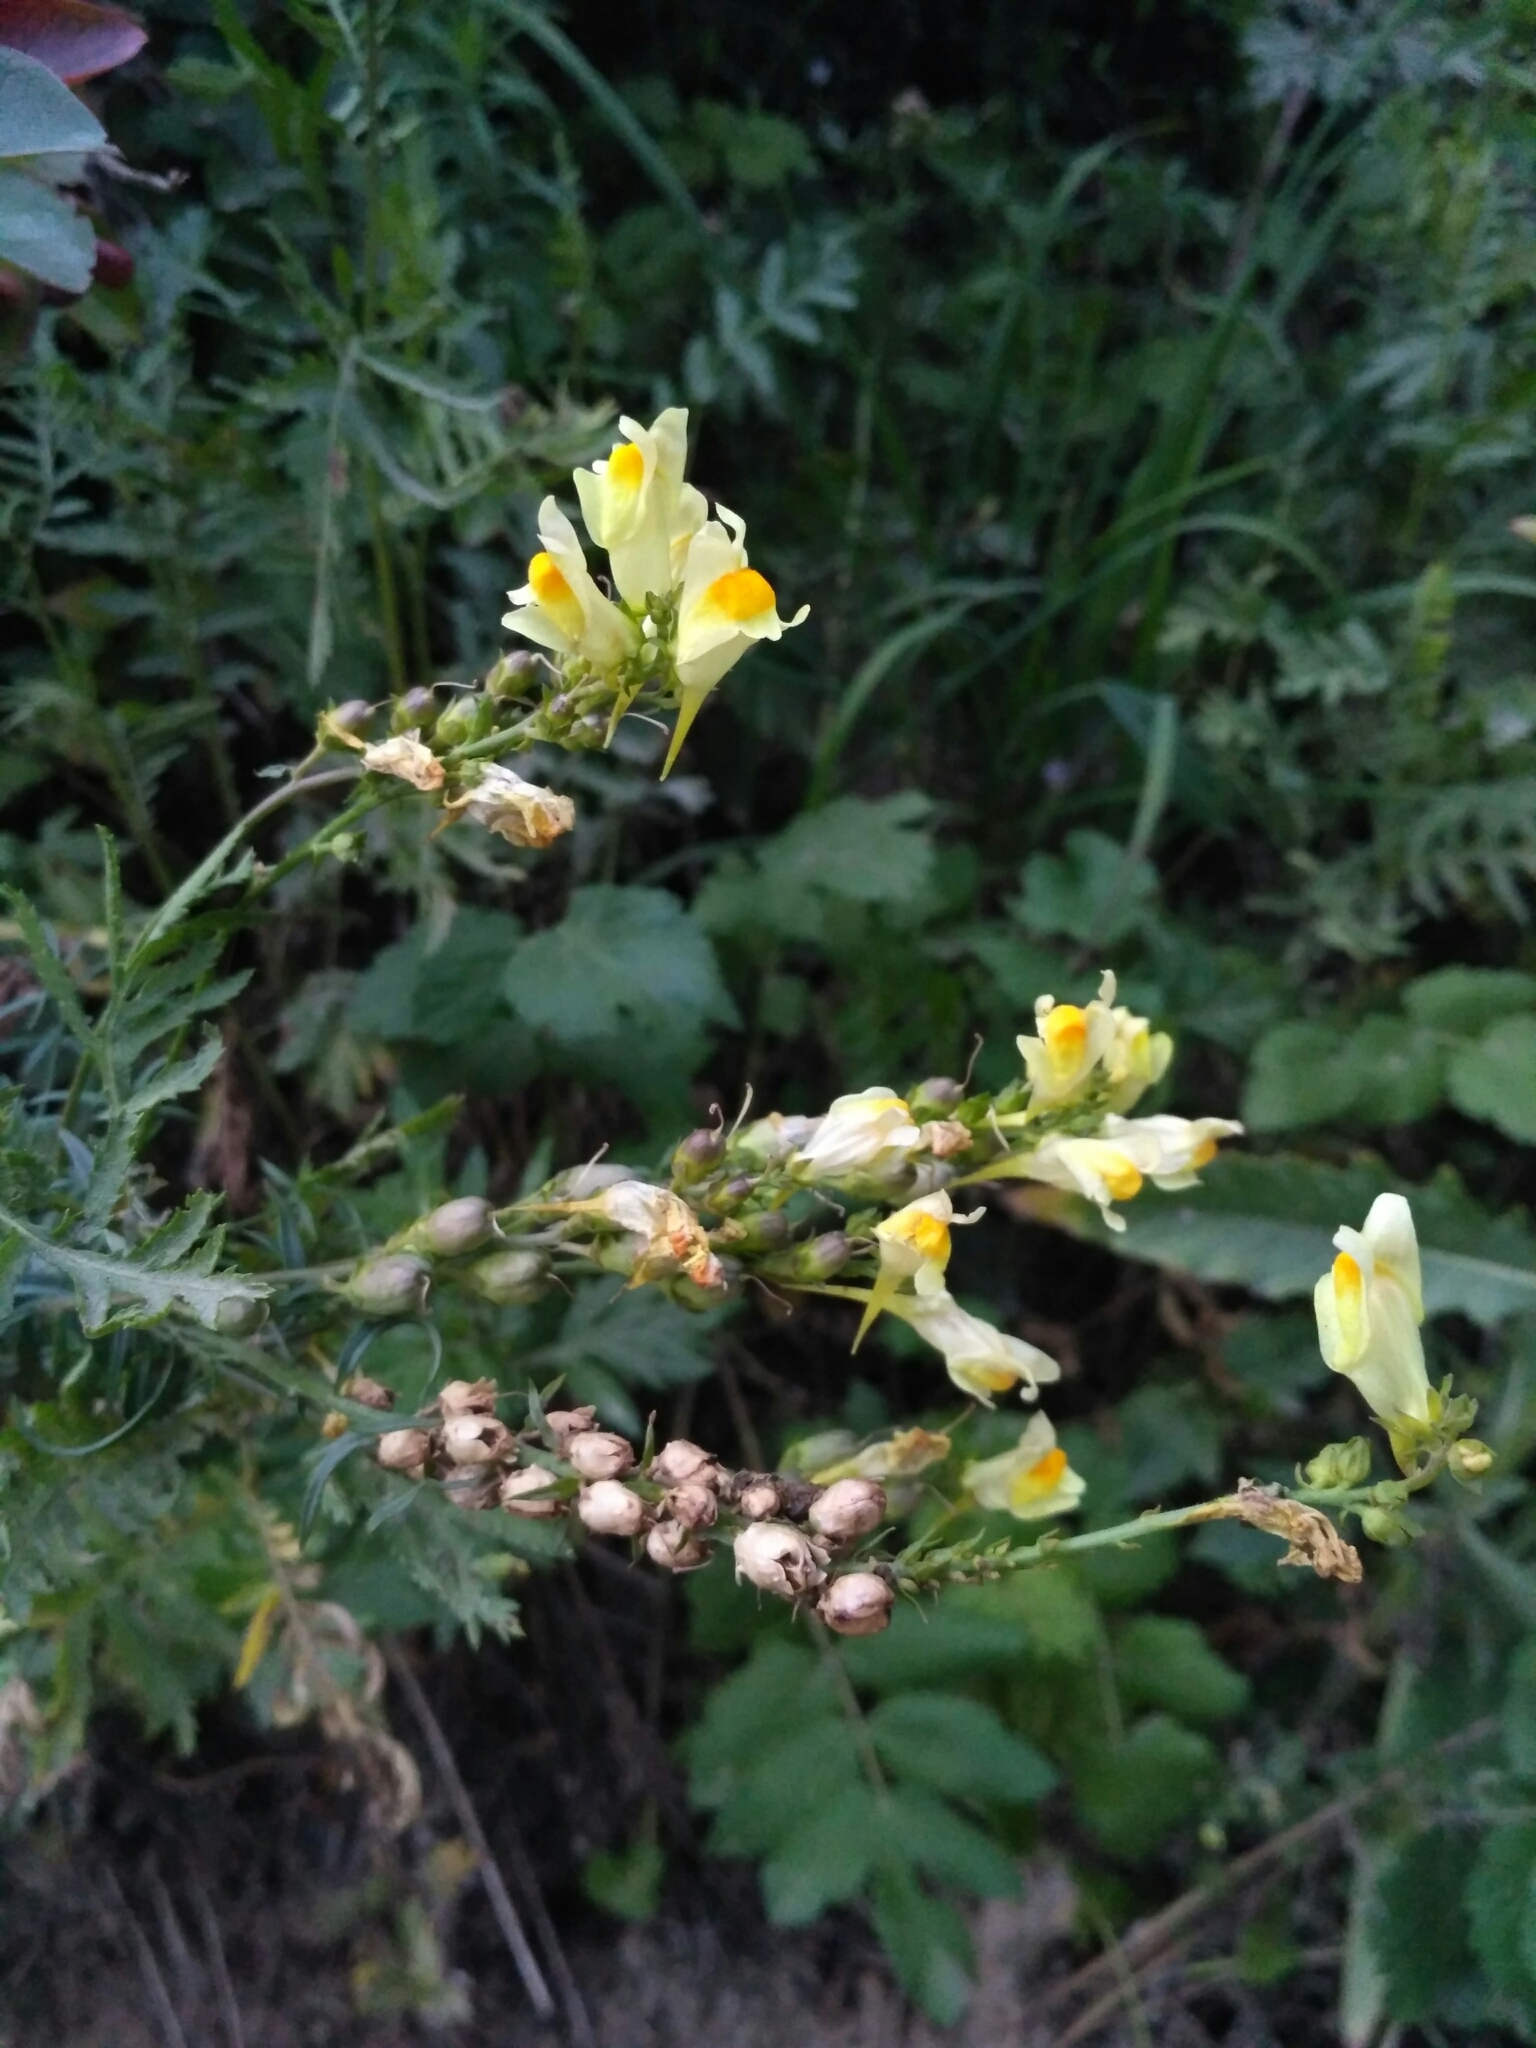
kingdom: Plantae
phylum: Tracheophyta
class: Magnoliopsida
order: Lamiales
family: Plantaginaceae
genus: Linaria
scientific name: Linaria vulgaris
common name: Butter and eggs
